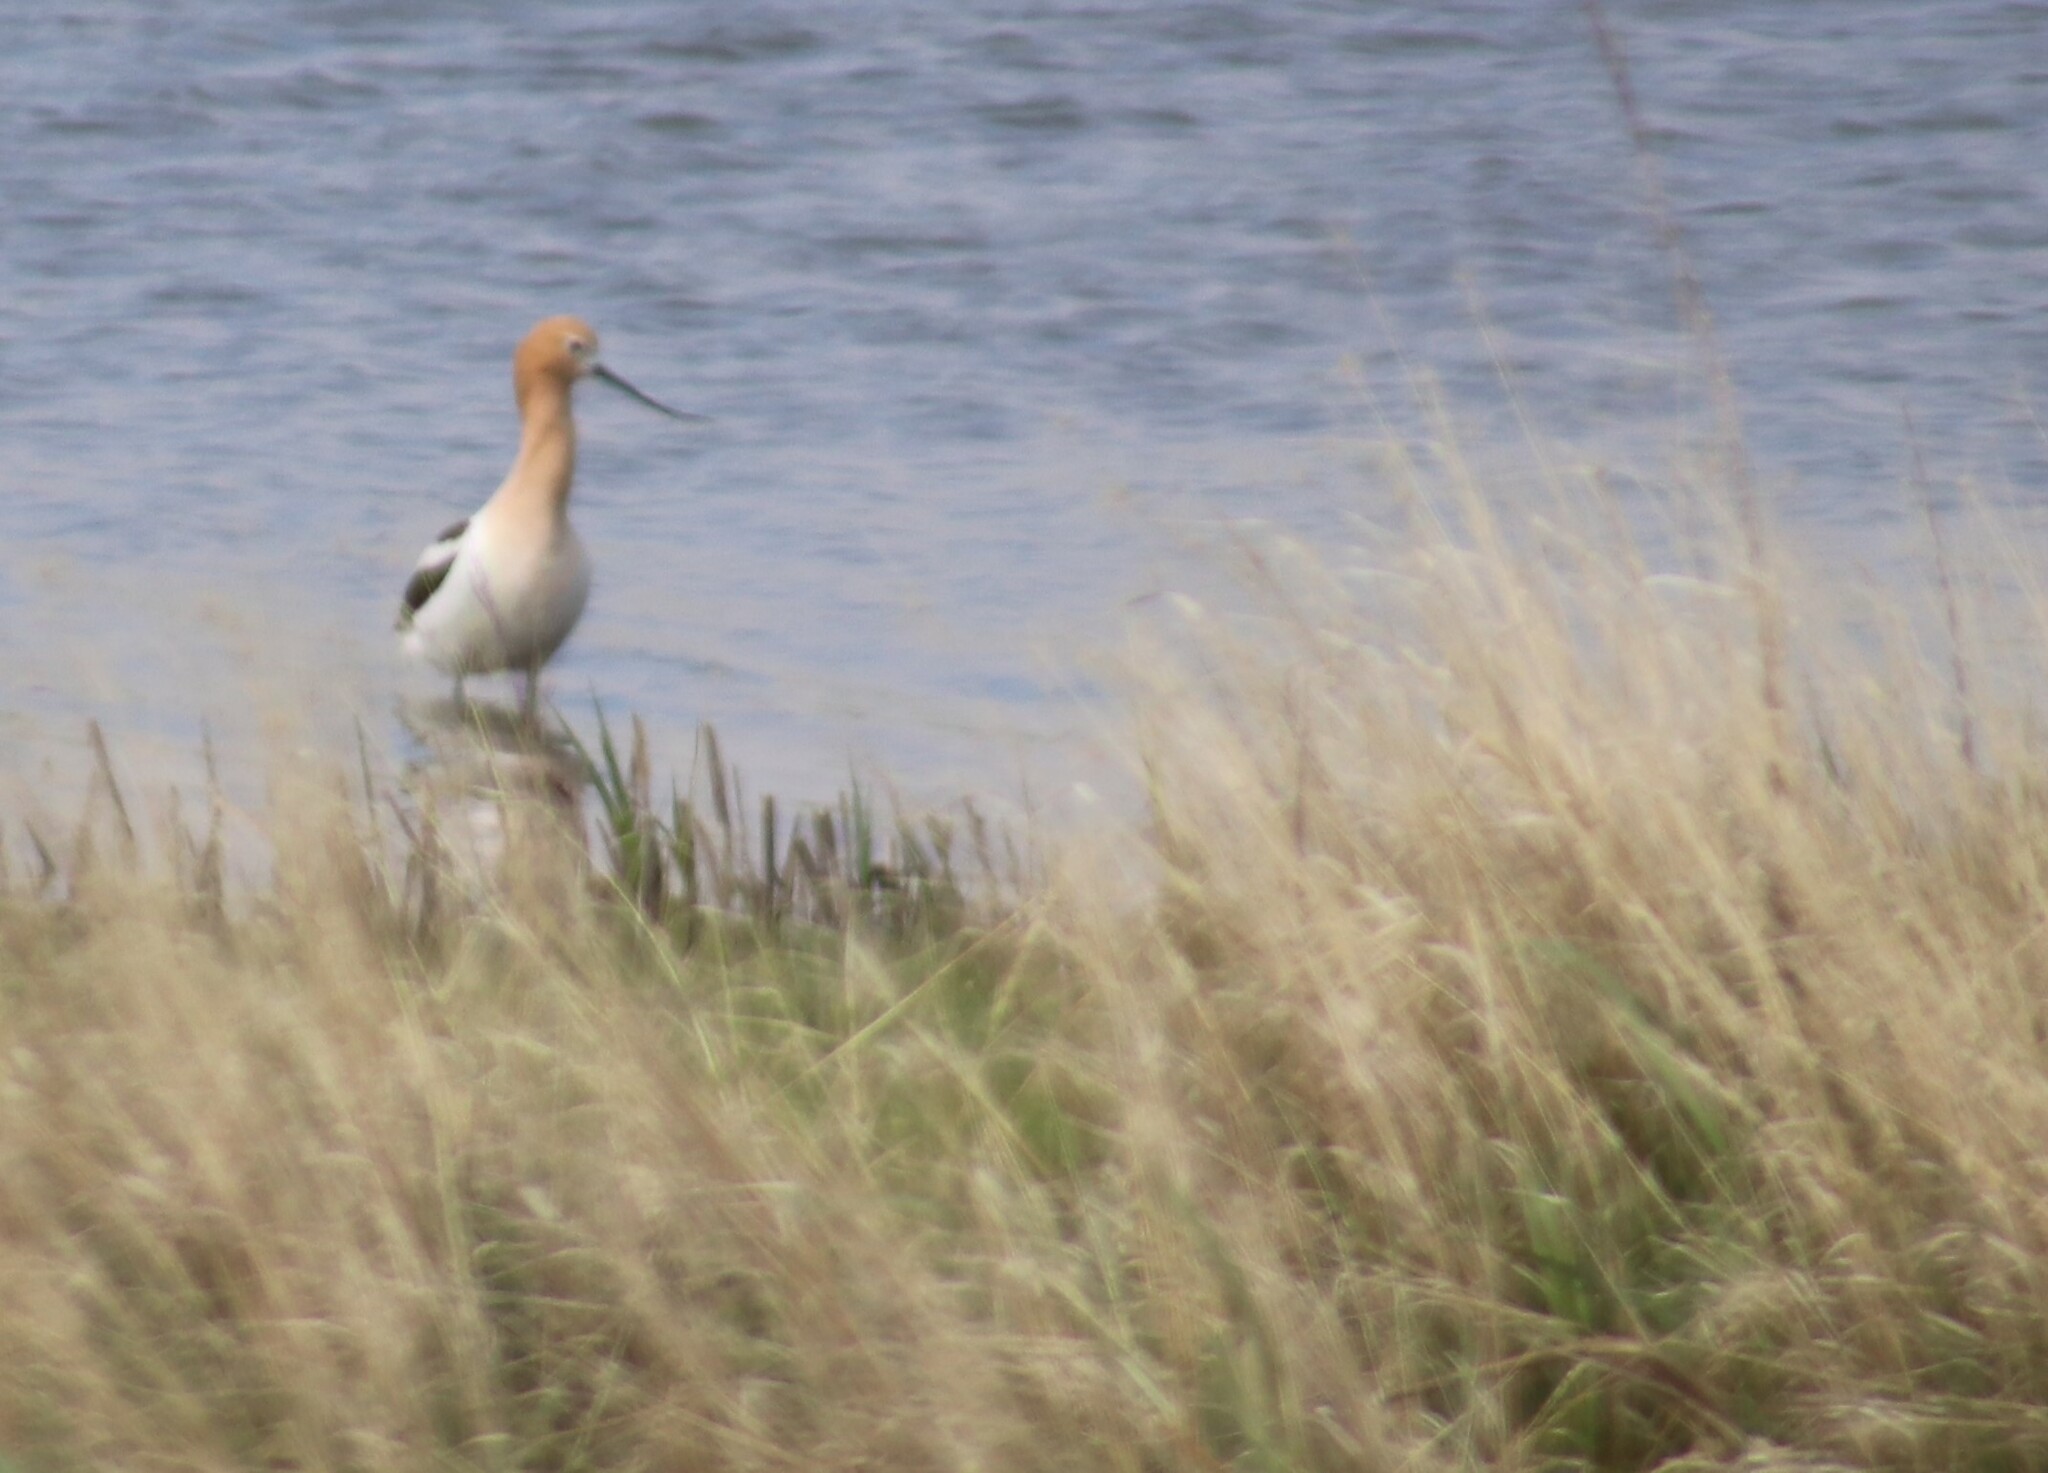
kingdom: Animalia
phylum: Chordata
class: Aves
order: Charadriiformes
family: Recurvirostridae
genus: Recurvirostra
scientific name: Recurvirostra americana
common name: American avocet
